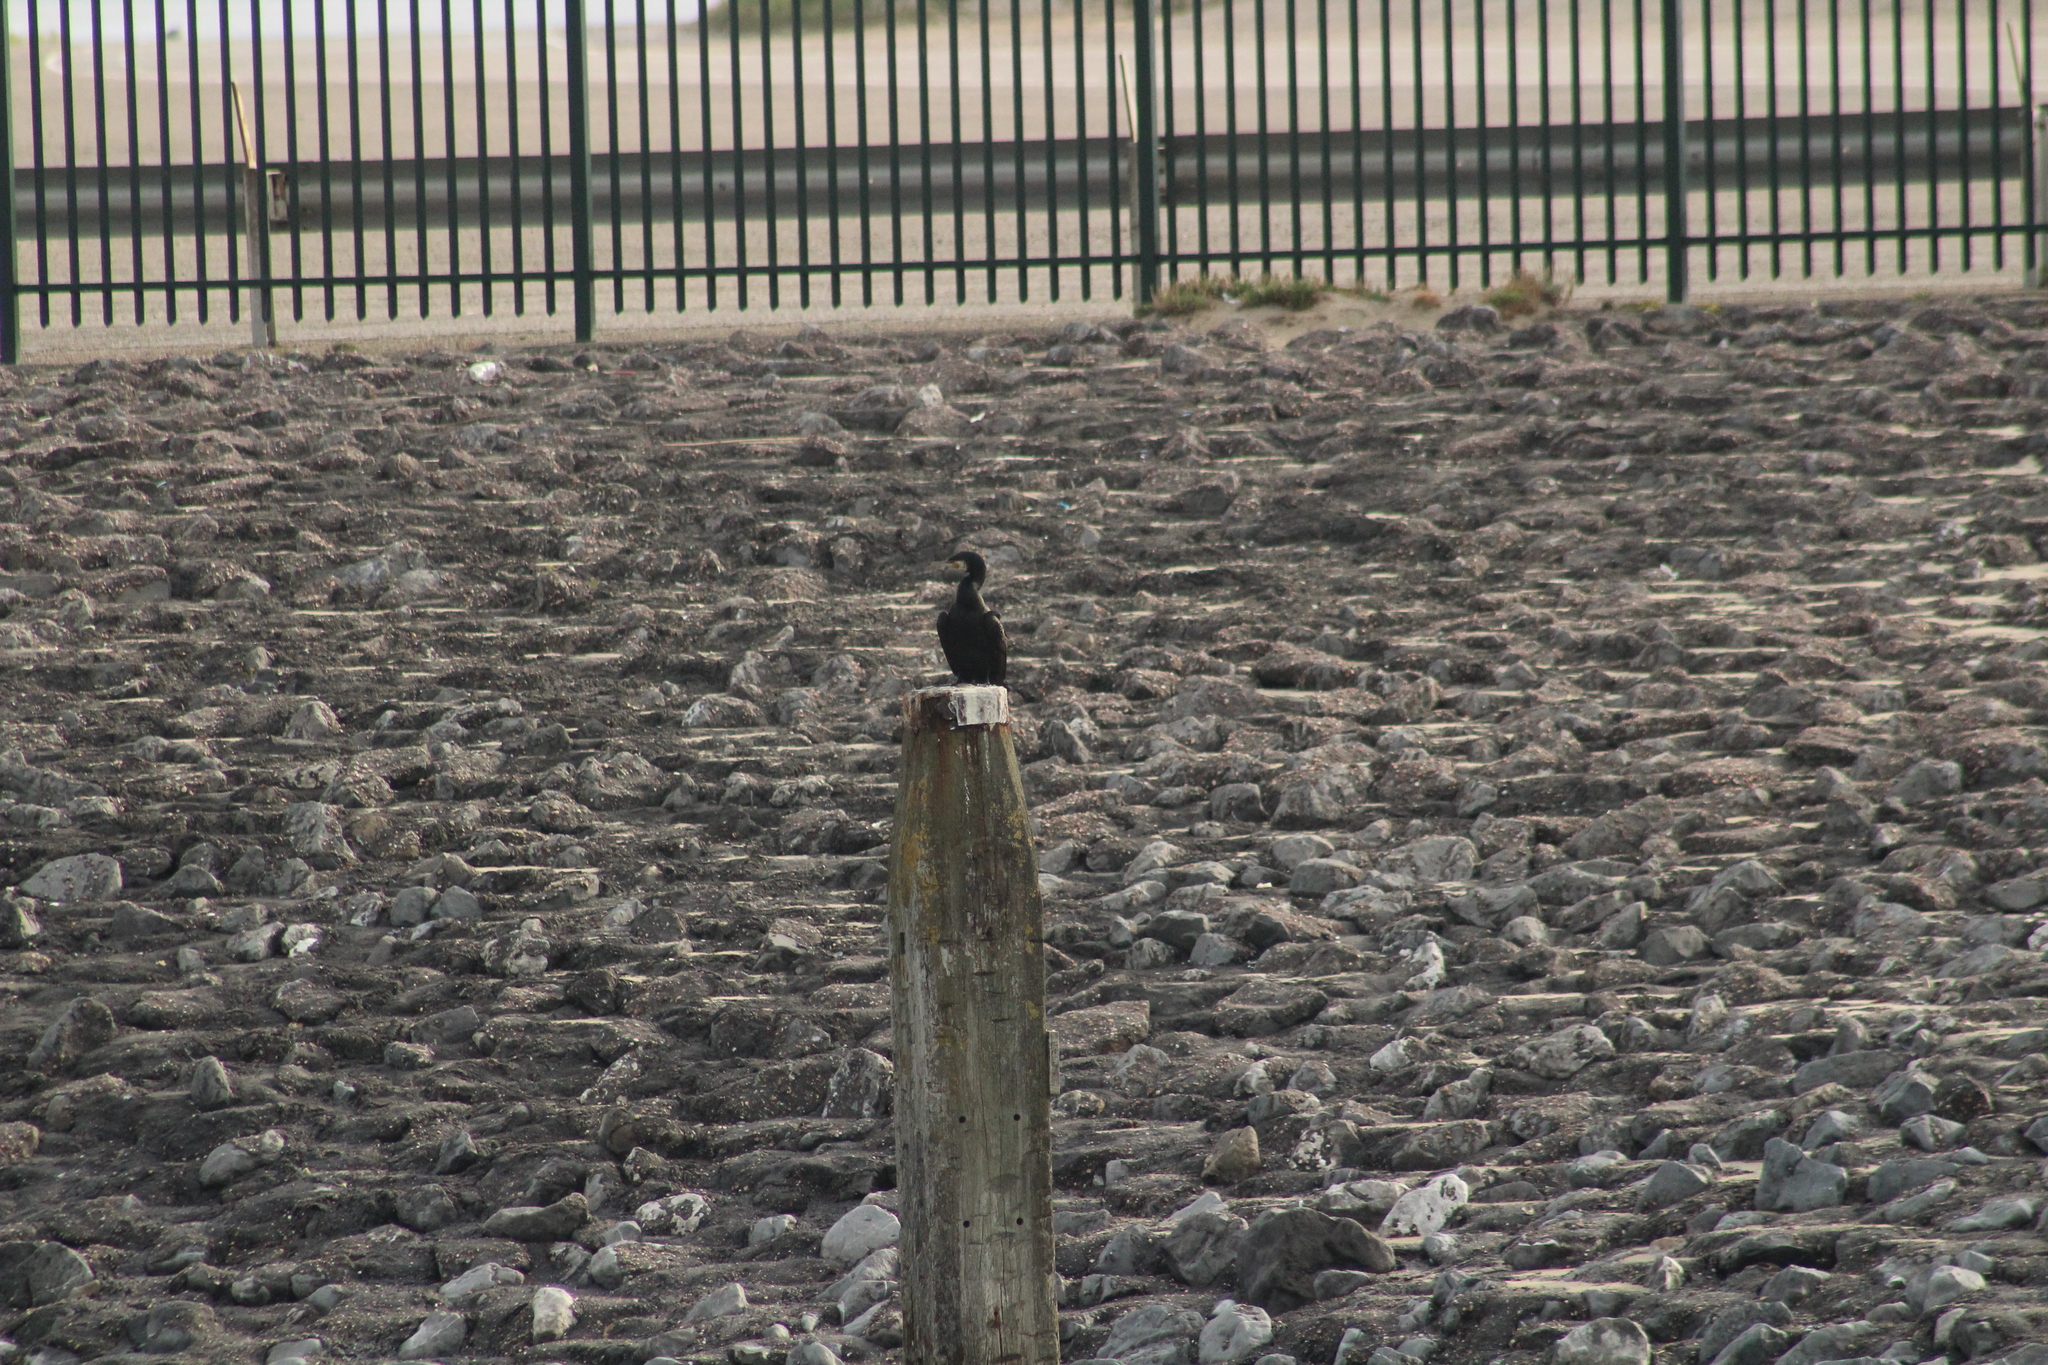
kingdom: Animalia
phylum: Chordata
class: Aves
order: Suliformes
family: Phalacrocoracidae
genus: Phalacrocorax
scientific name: Phalacrocorax carbo
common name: Great cormorant
